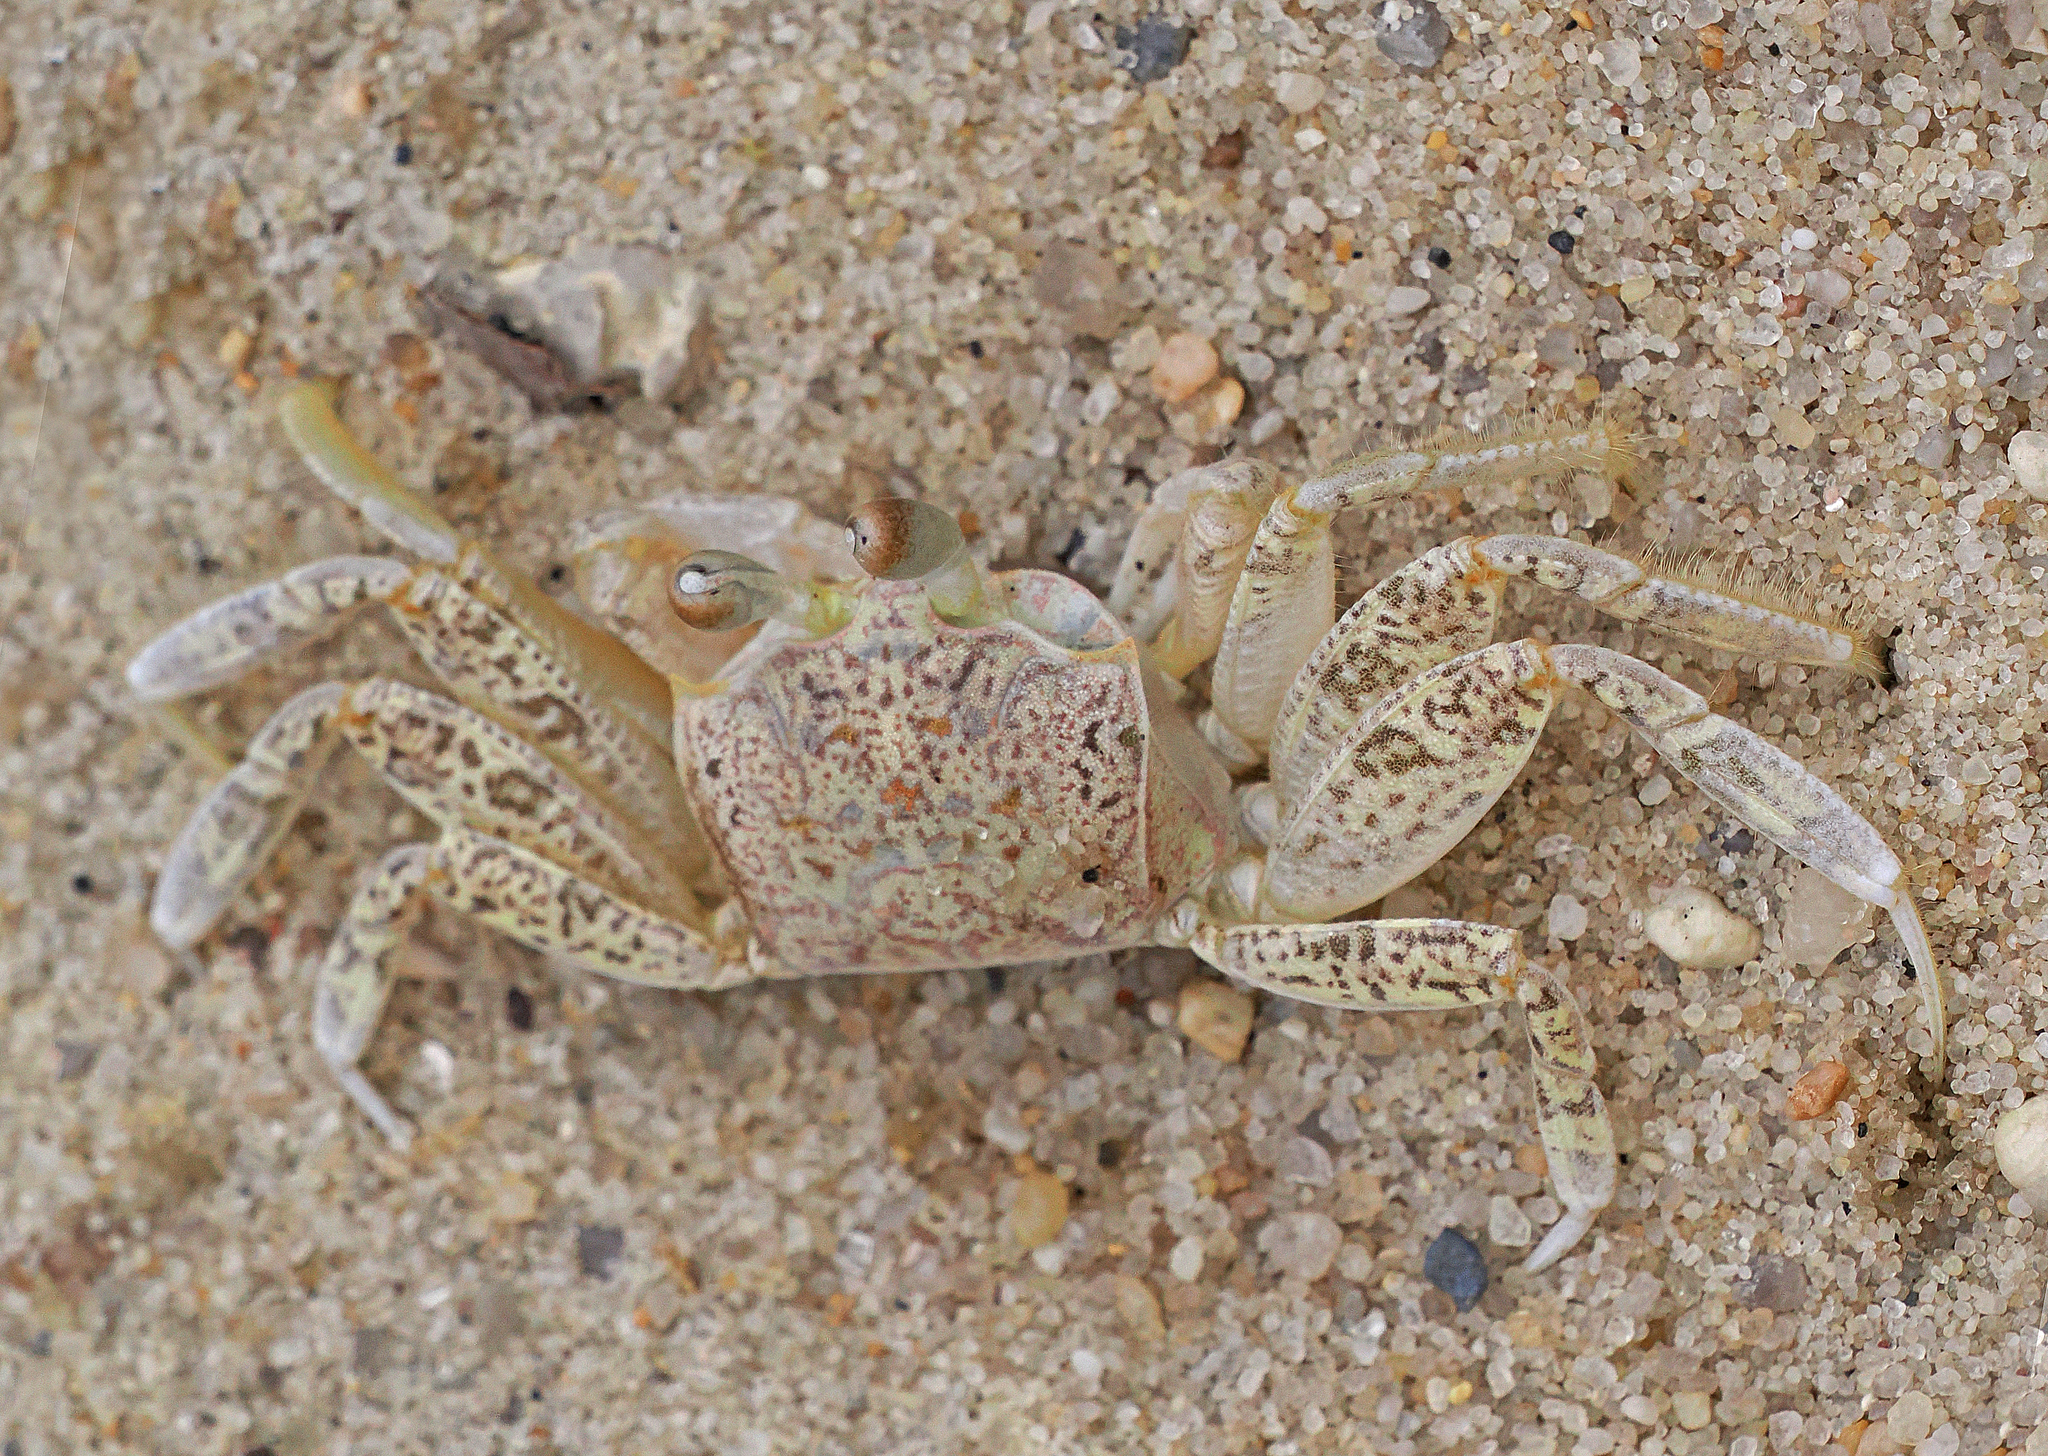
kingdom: Animalia
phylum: Arthropoda
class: Malacostraca
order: Decapoda
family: Ocypodidae
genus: Ocypode
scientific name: Ocypode quadrata
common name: Ghost crab
